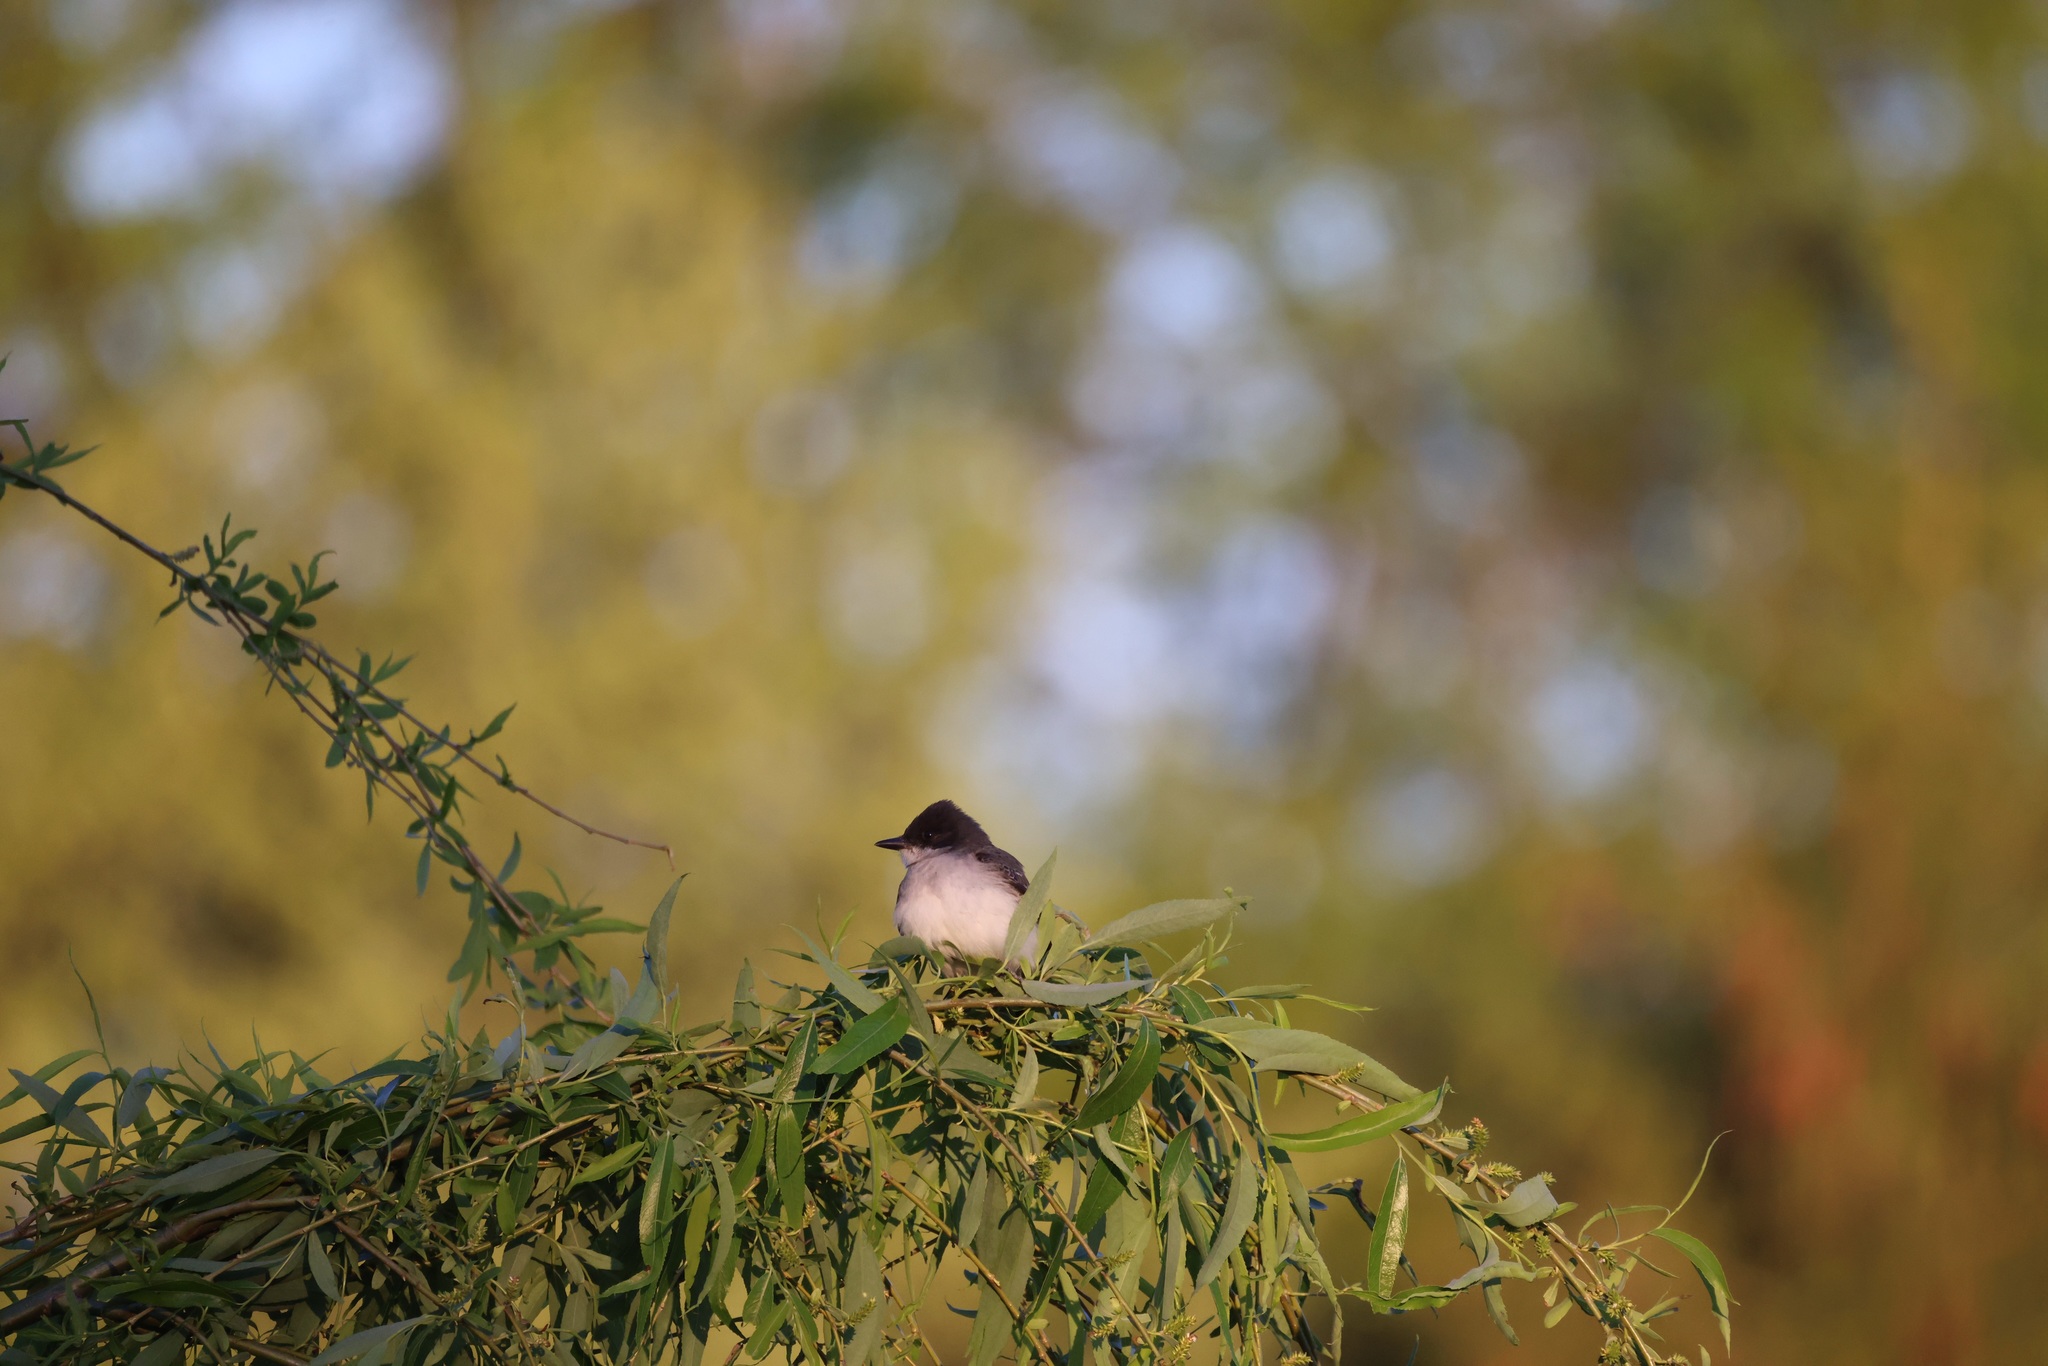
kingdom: Animalia
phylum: Chordata
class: Aves
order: Passeriformes
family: Tyrannidae
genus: Tyrannus
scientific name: Tyrannus tyrannus
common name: Eastern kingbird
